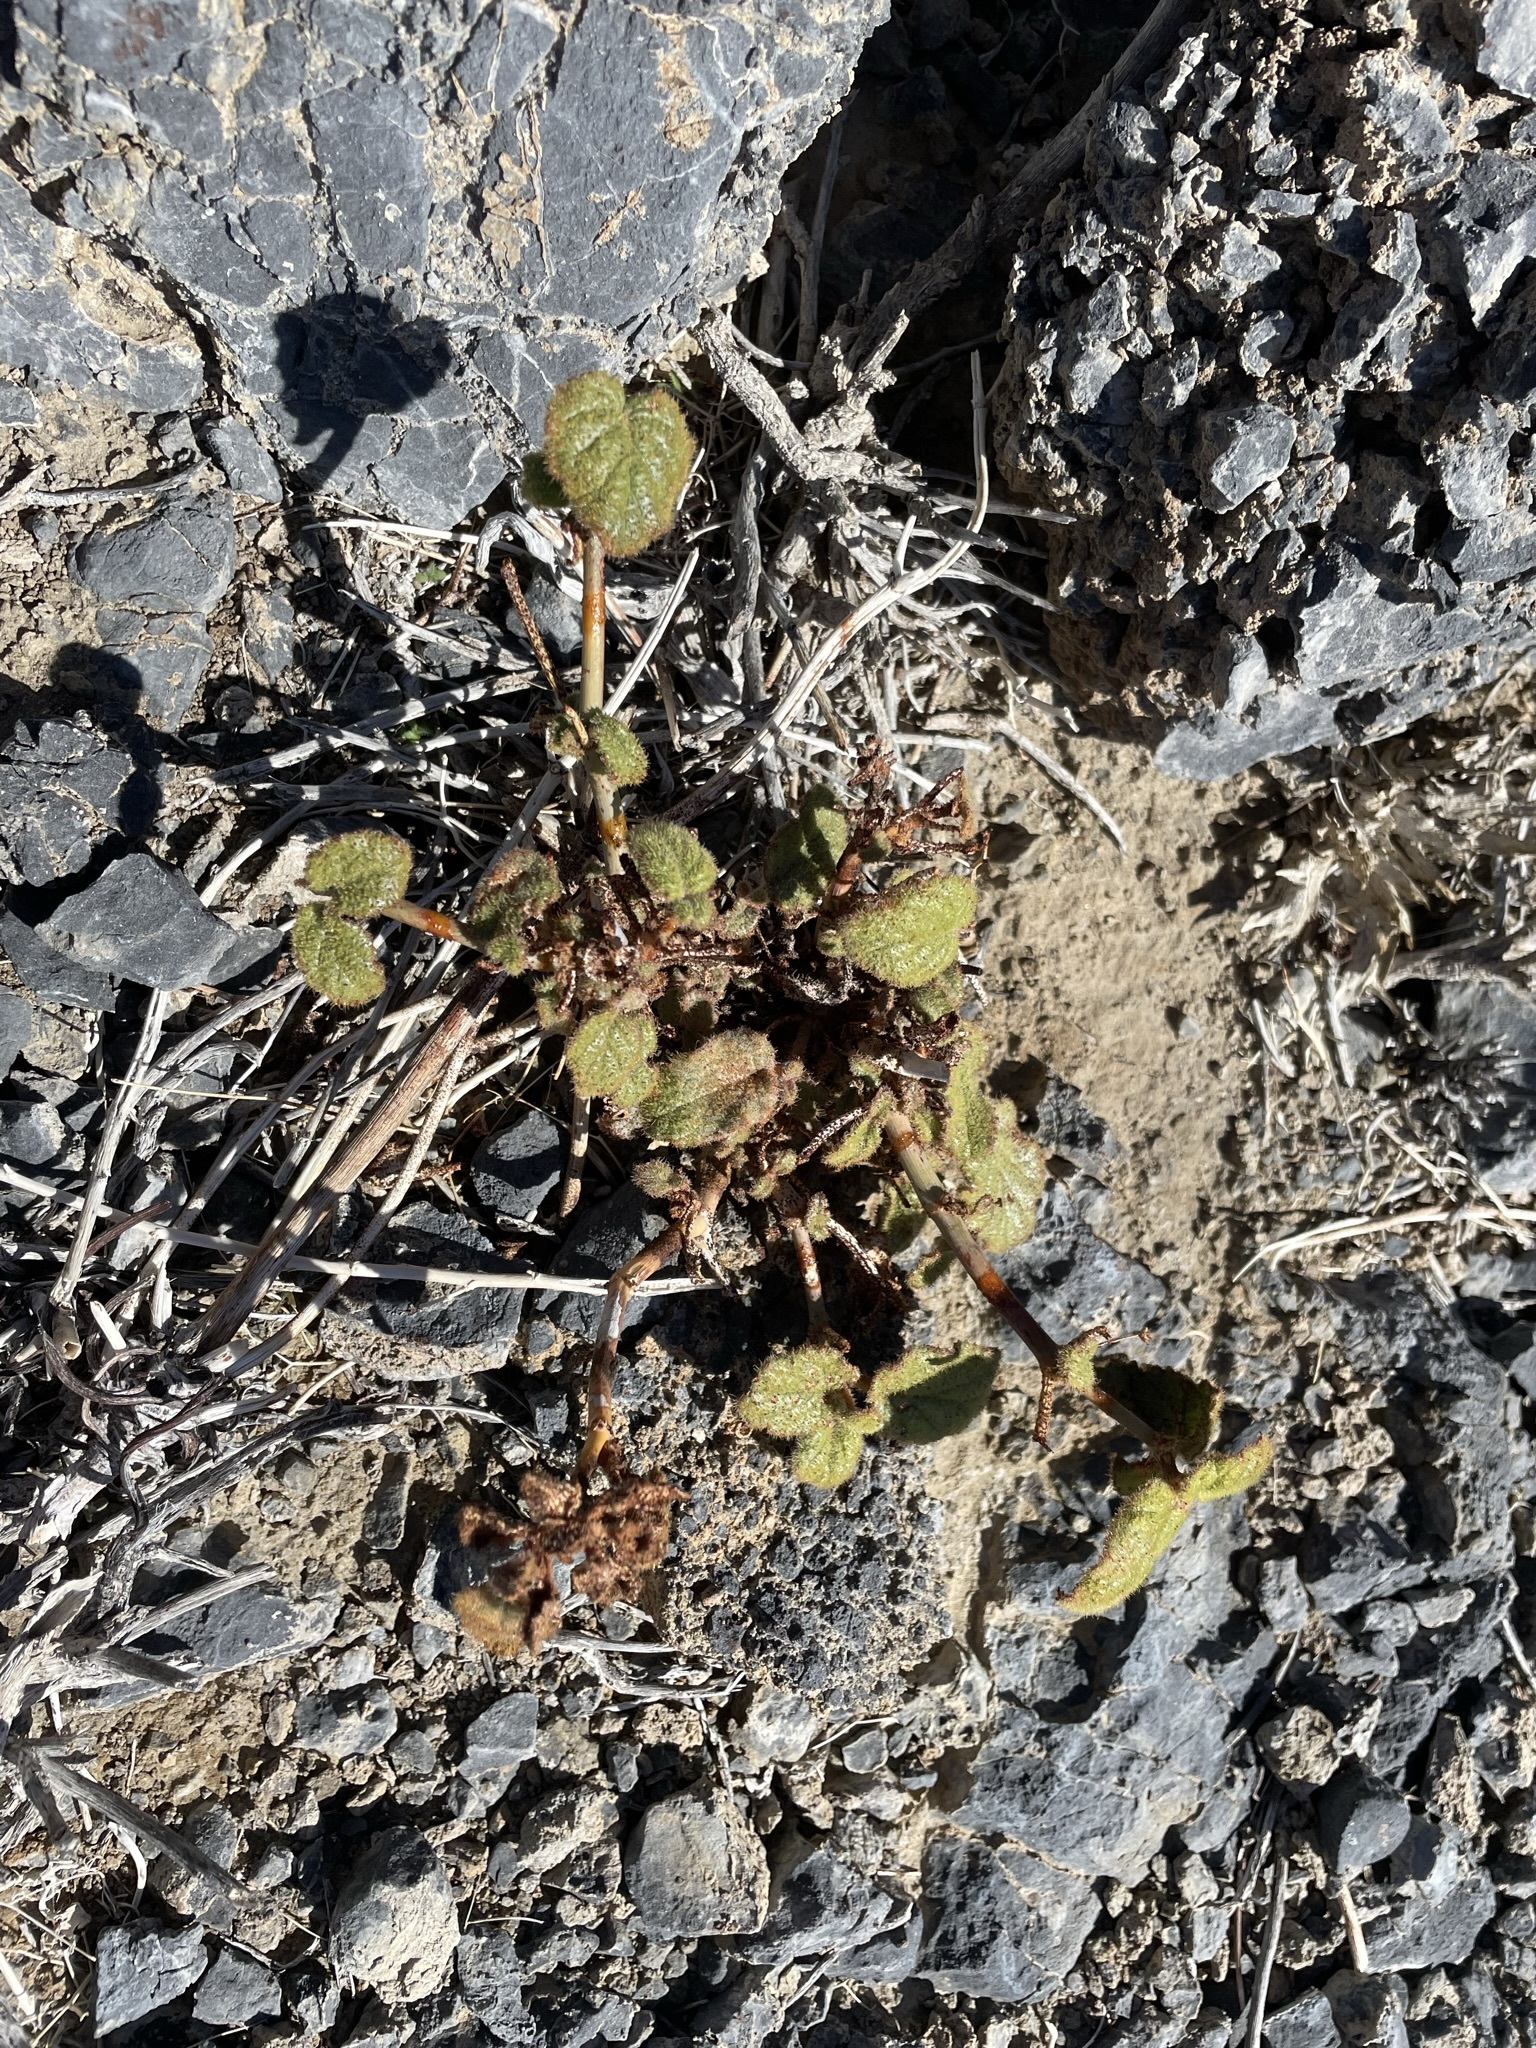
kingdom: Plantae
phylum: Tracheophyta
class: Magnoliopsida
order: Caryophyllales
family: Nyctaginaceae
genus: Anulocaulis
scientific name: Anulocaulis annulatus
